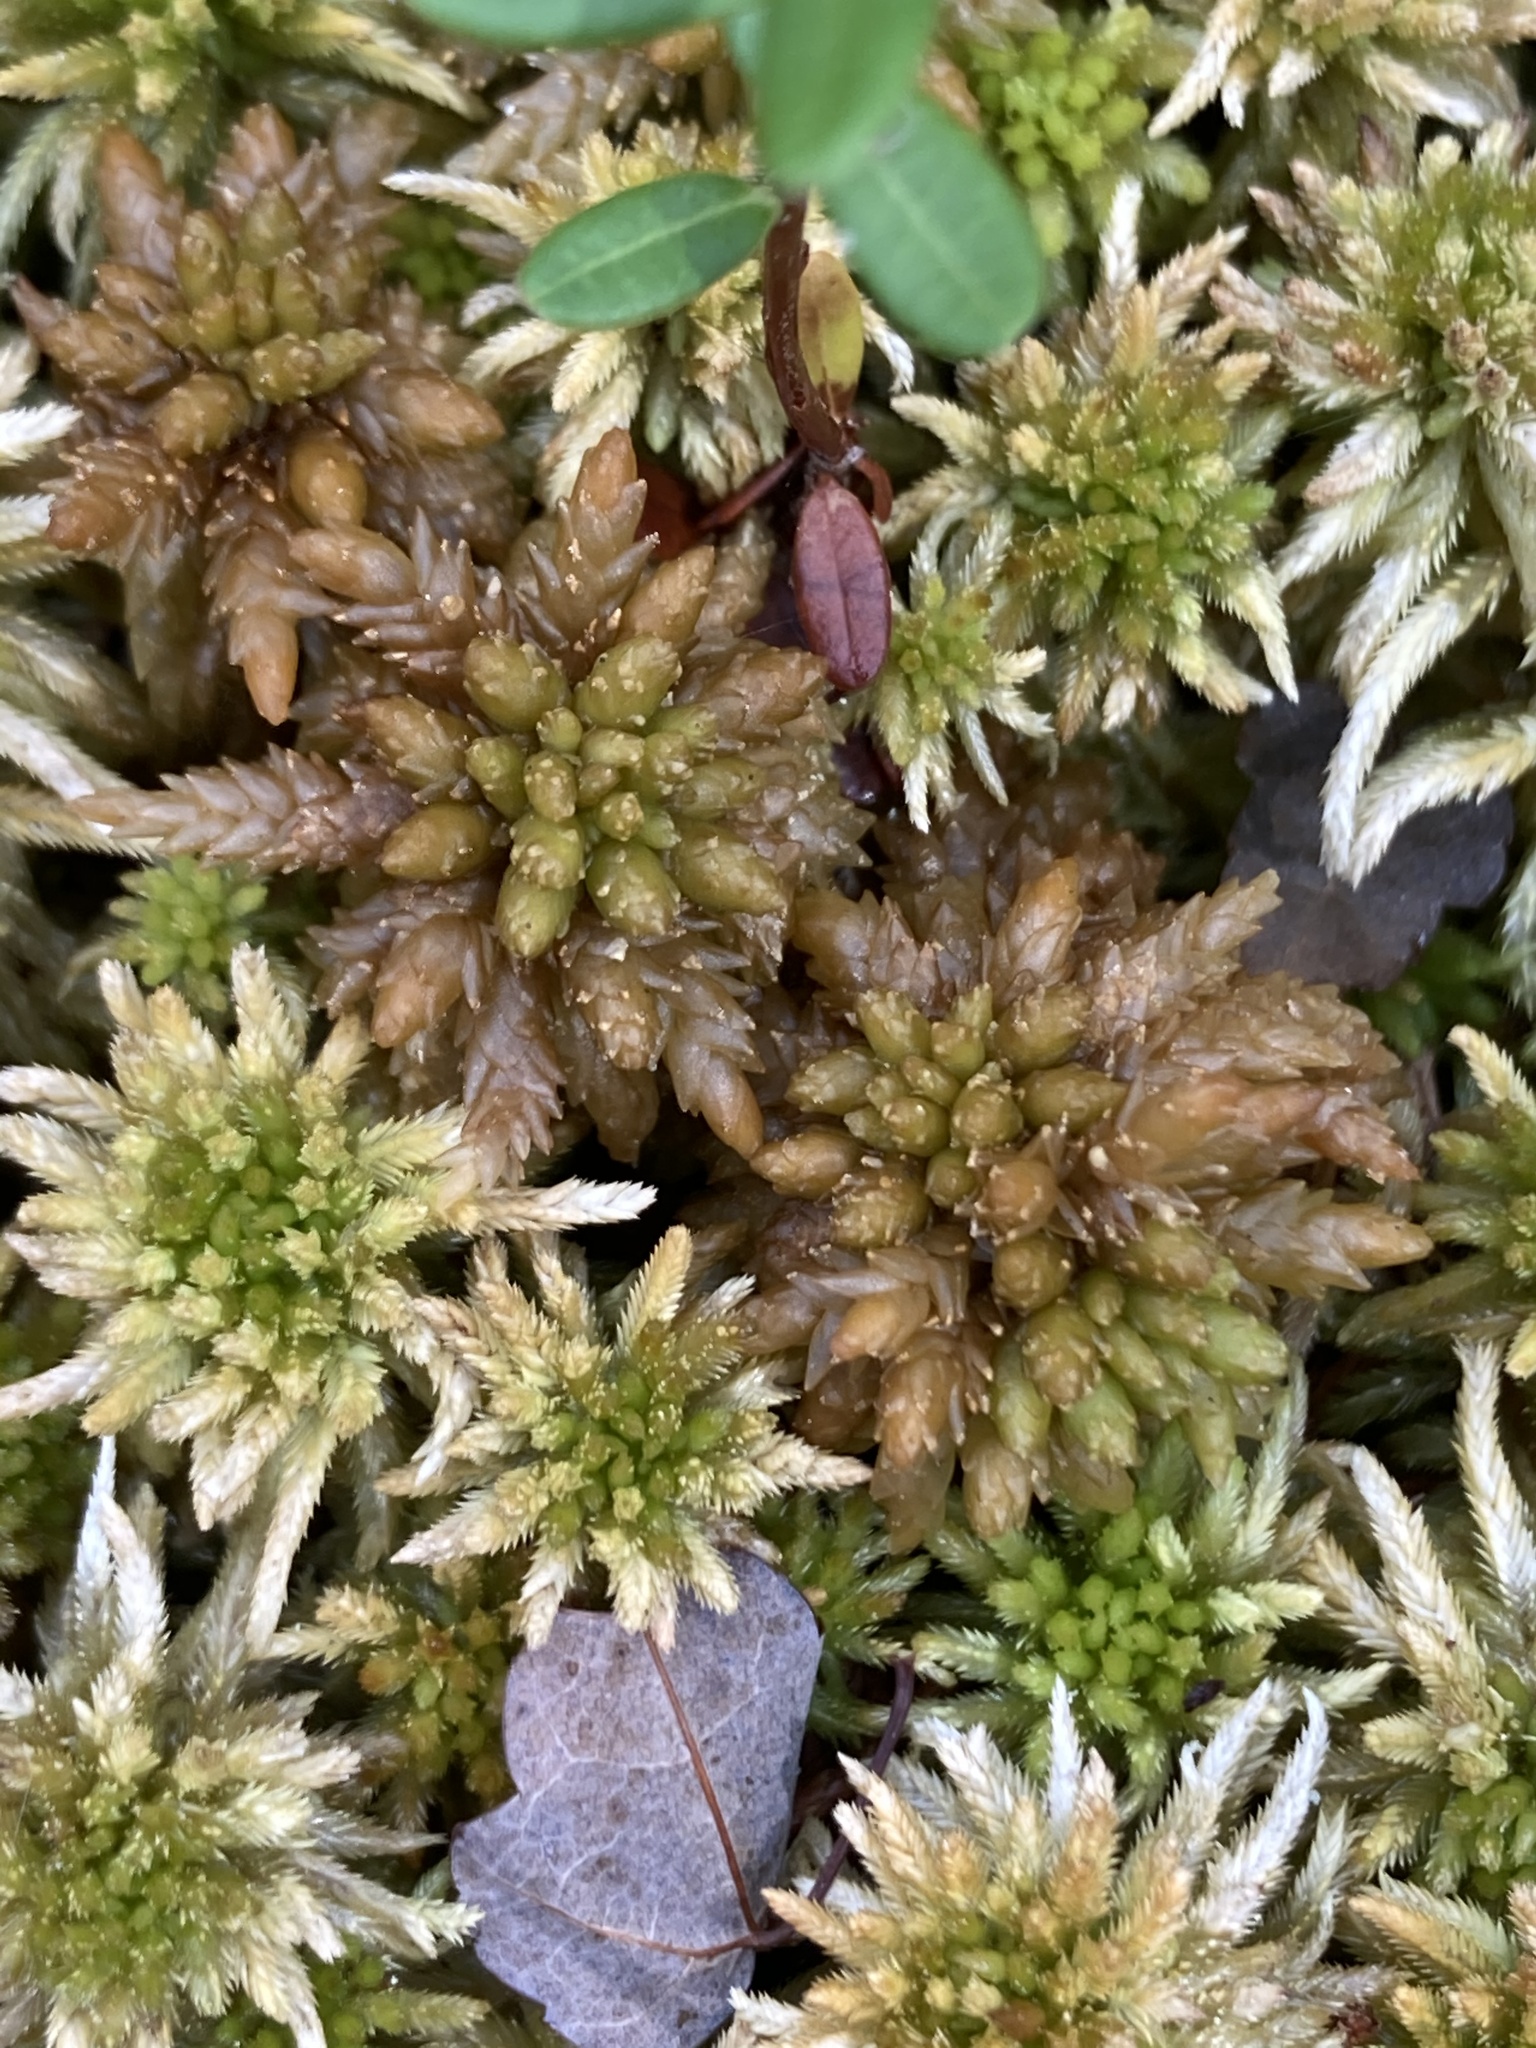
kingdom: Plantae
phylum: Bryophyta
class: Sphagnopsida
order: Sphagnales
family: Sphagnaceae
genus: Sphagnum
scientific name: Sphagnum palustre
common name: Blunt-leaved bog-moss
